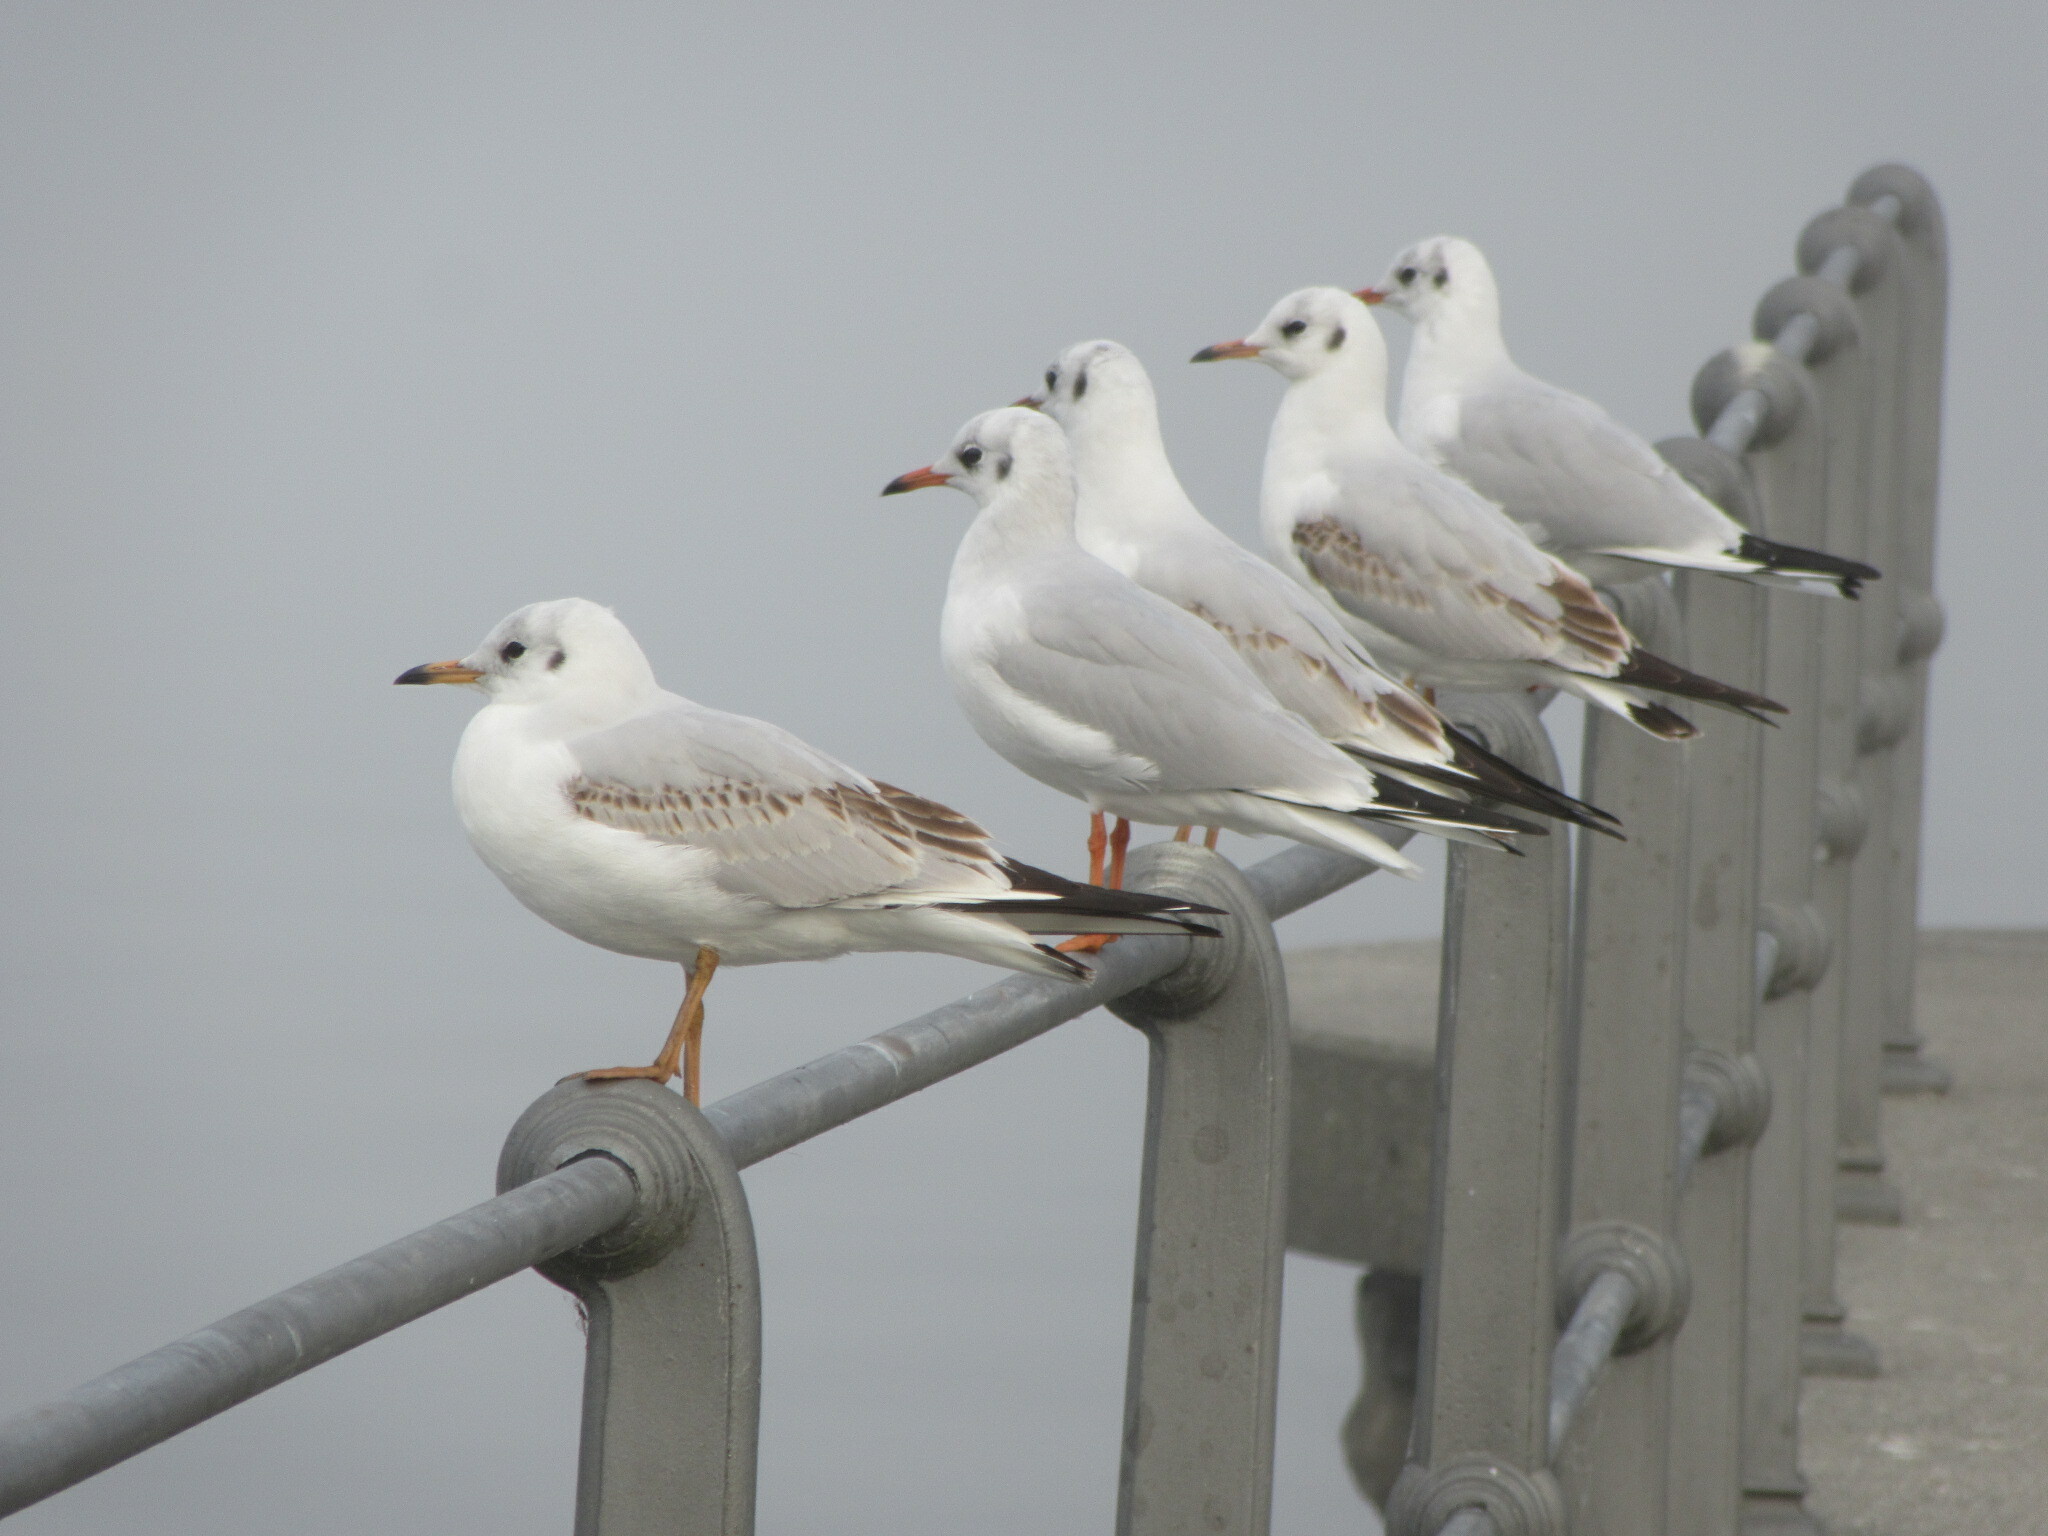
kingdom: Animalia
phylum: Chordata
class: Aves
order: Charadriiformes
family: Laridae
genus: Chroicocephalus
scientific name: Chroicocephalus ridibundus
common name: Black-headed gull
